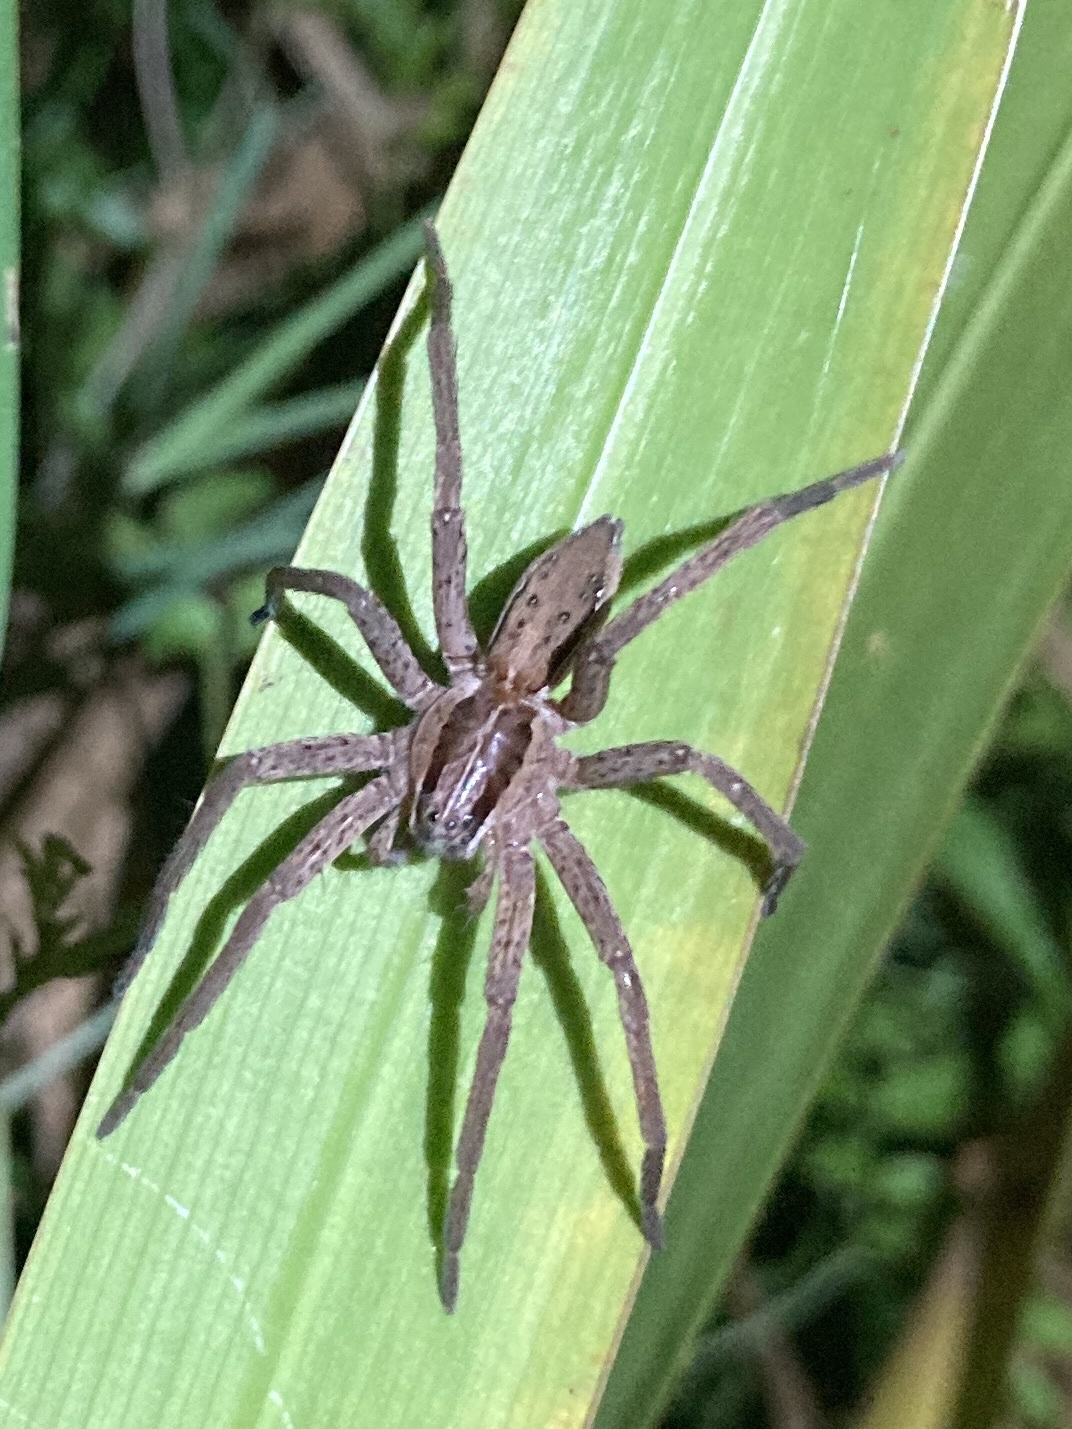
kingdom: Animalia
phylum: Arthropoda
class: Arachnida
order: Araneae
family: Pisauridae
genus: Dolomedes
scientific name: Dolomedes minor
